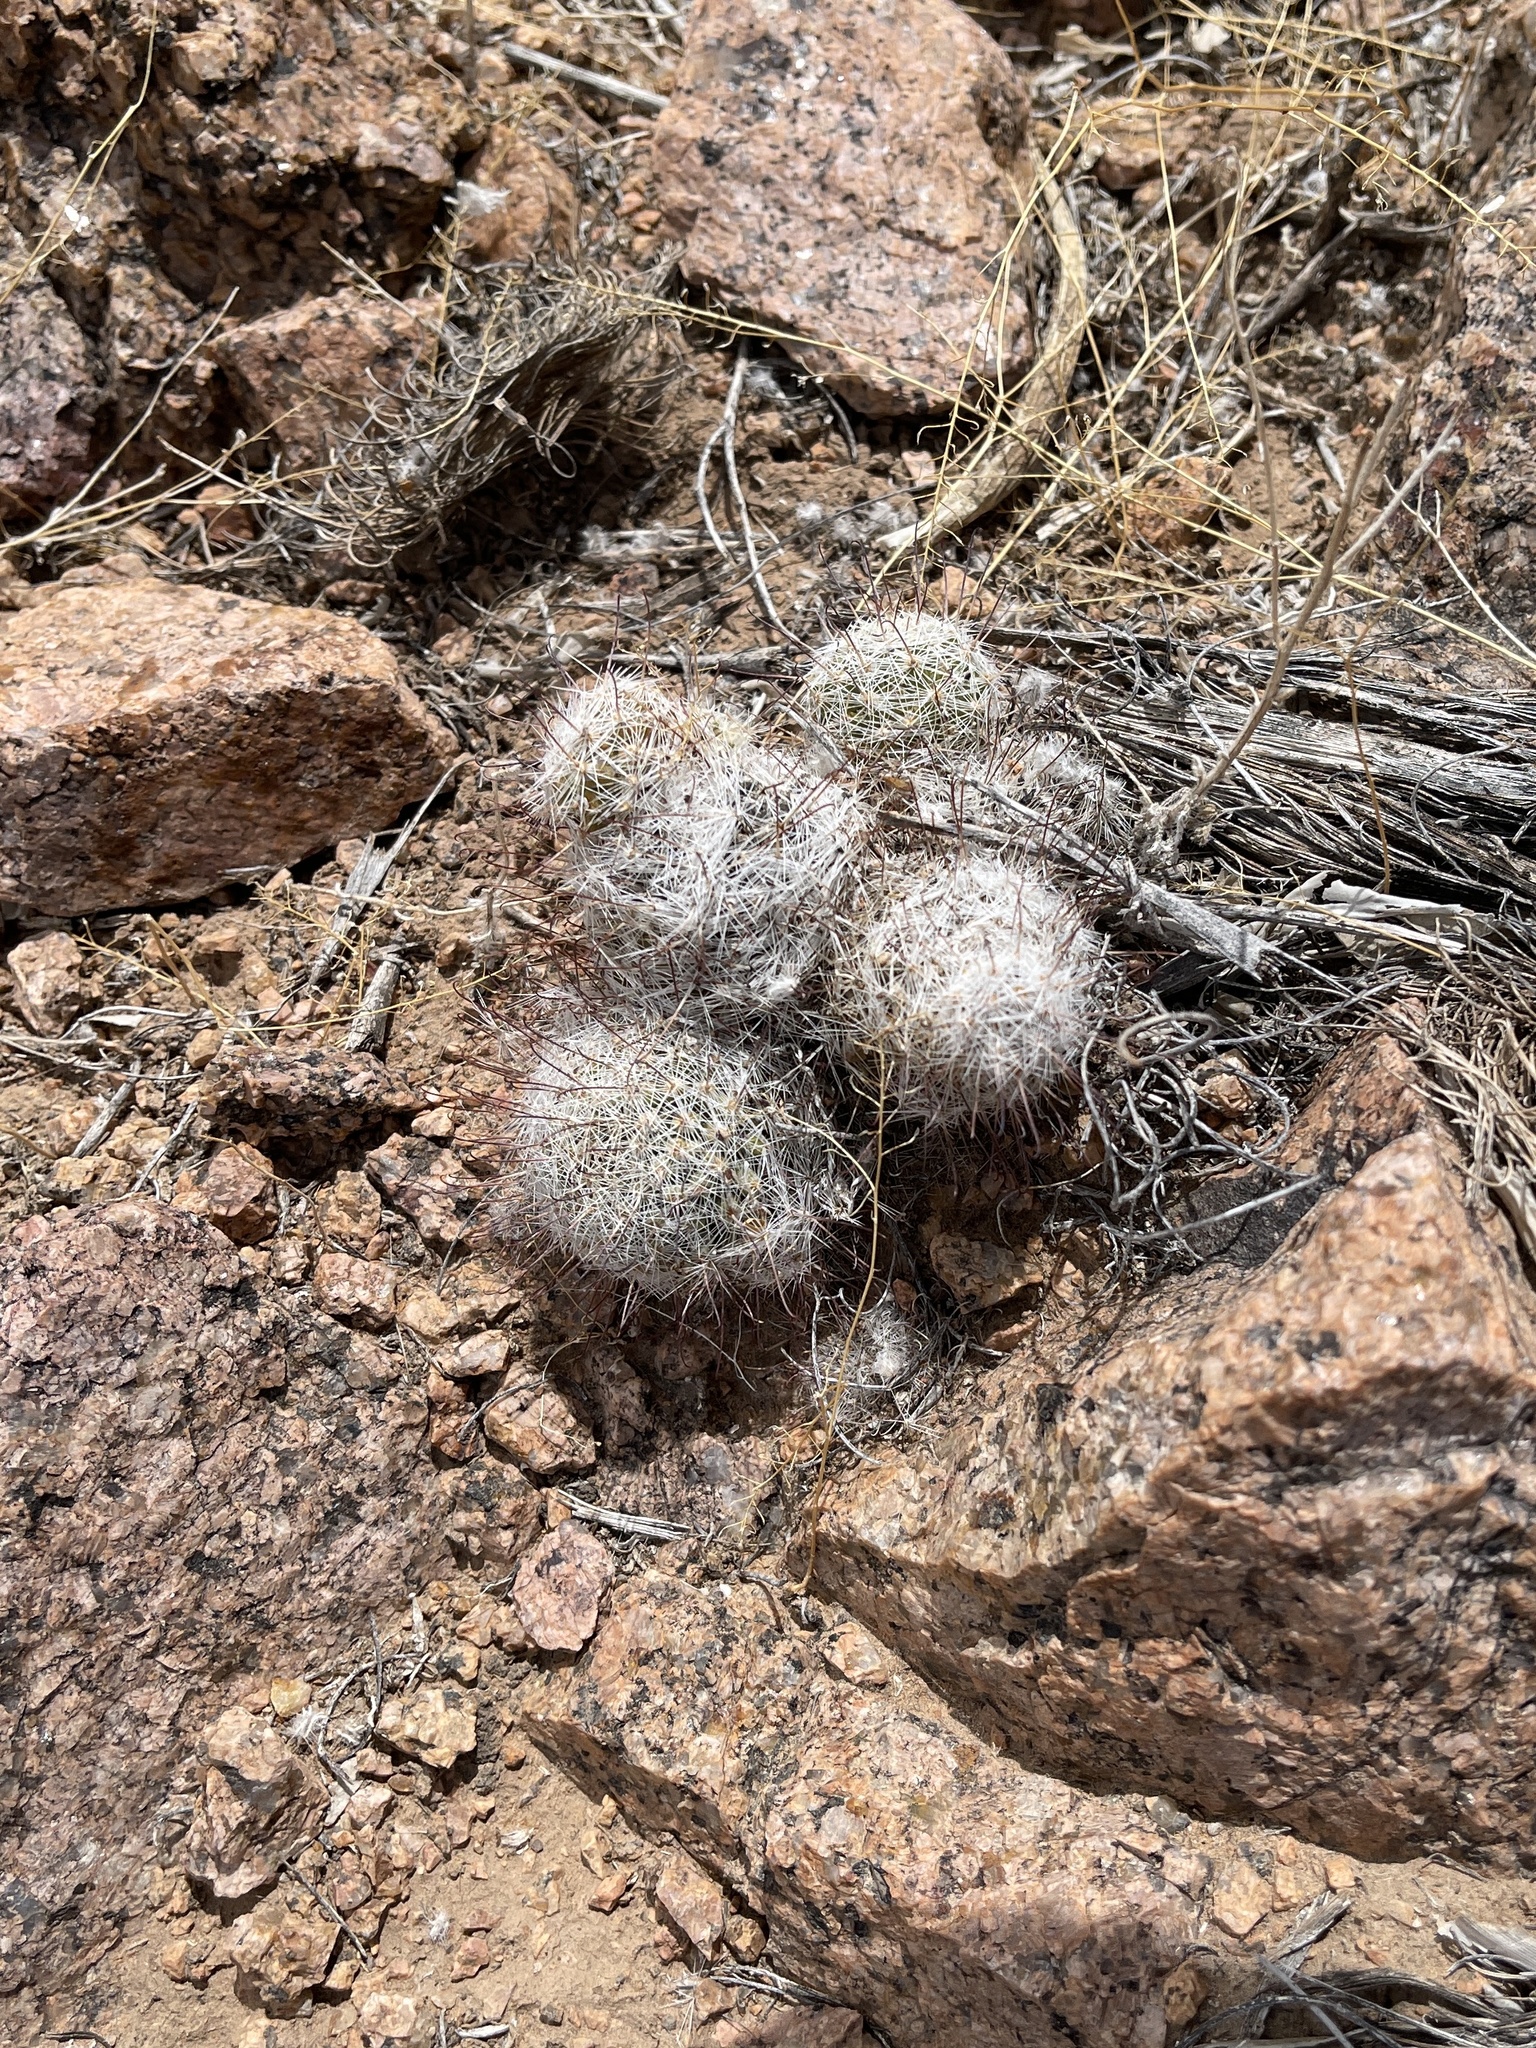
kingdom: Plantae
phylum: Tracheophyta
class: Magnoliopsida
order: Caryophyllales
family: Cactaceae
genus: Cochemiea
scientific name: Cochemiea grahamii
